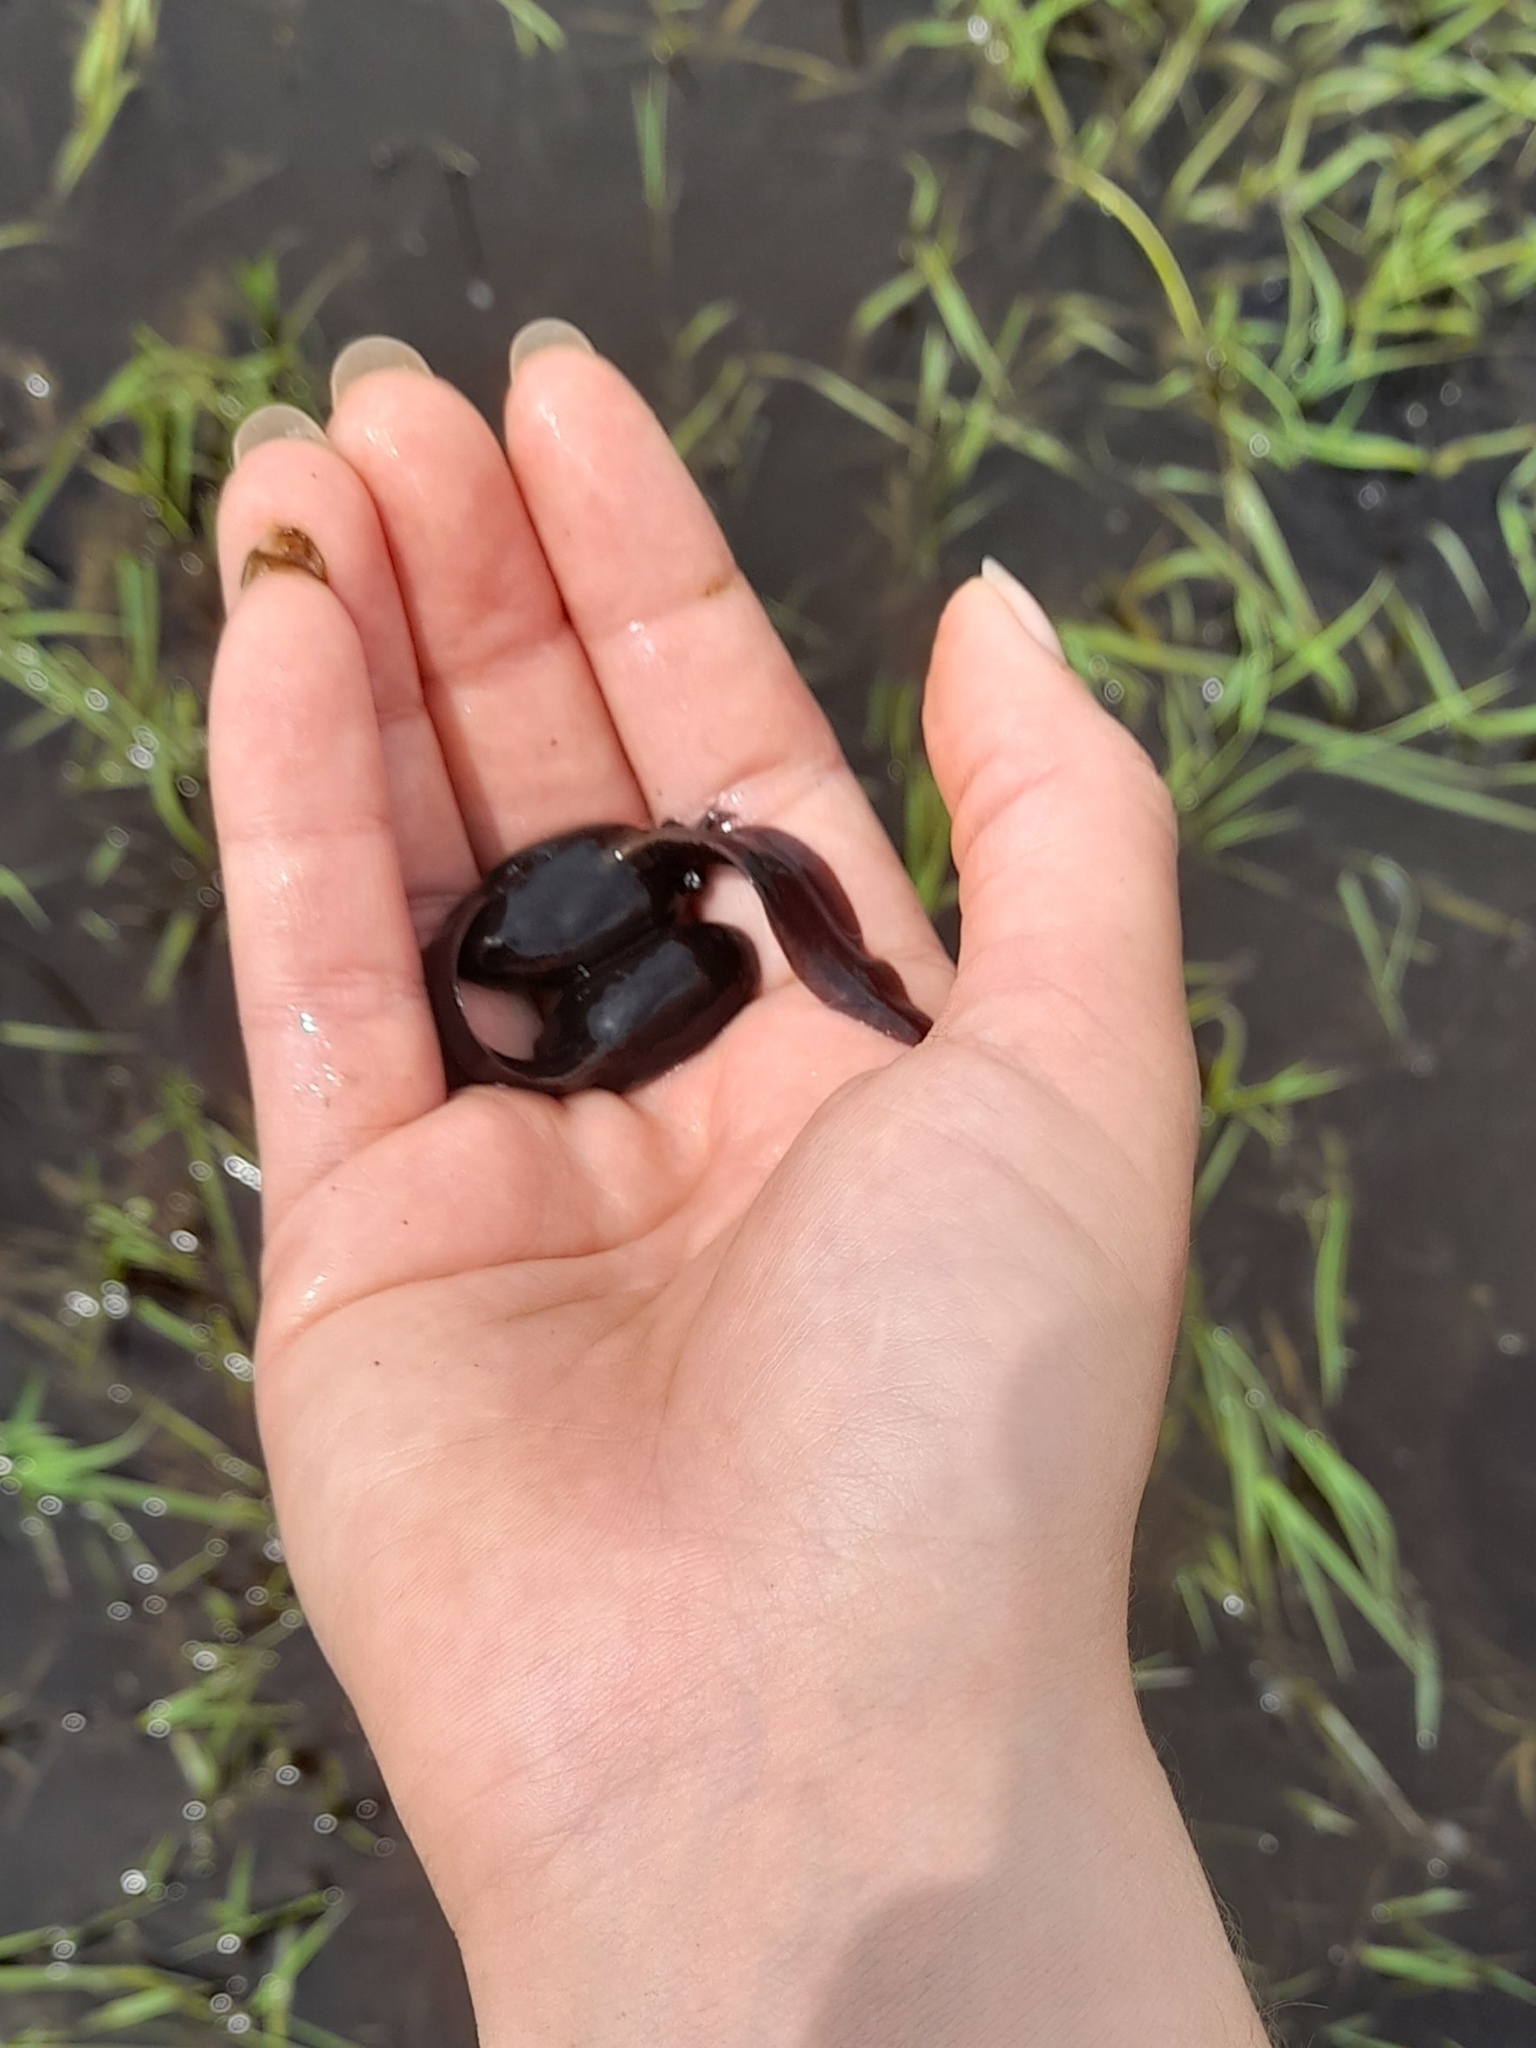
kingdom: Animalia
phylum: Chordata
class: Amphibia
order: Anura
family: Leptodactylidae
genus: Leptodactylus
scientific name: Leptodactylus luctator
